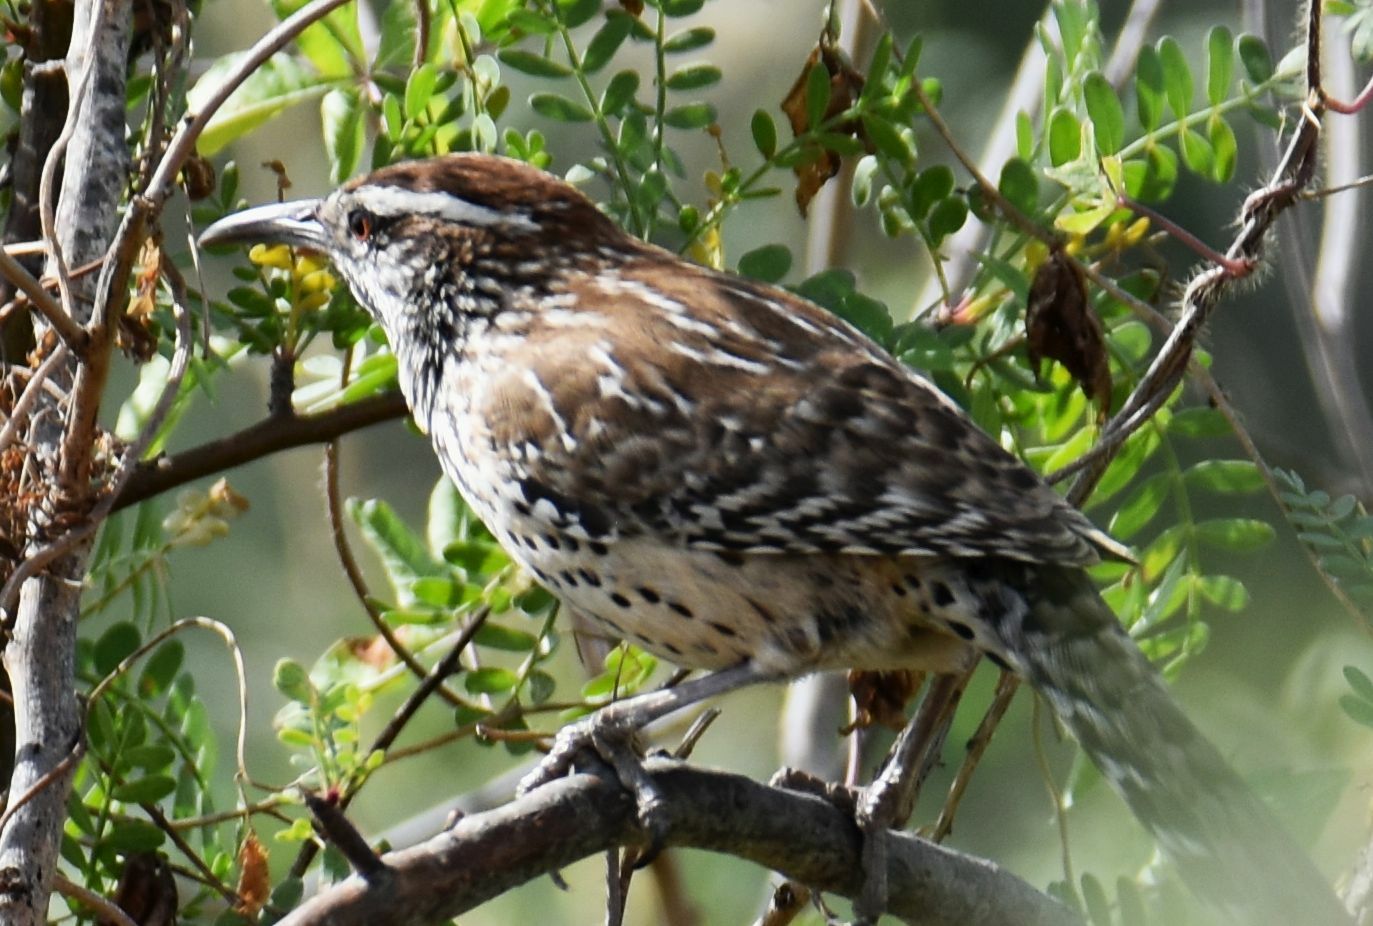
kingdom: Animalia
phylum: Chordata
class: Aves
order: Passeriformes
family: Troglodytidae
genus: Campylorhynchus
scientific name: Campylorhynchus brunneicapillus
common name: Cactus wren
